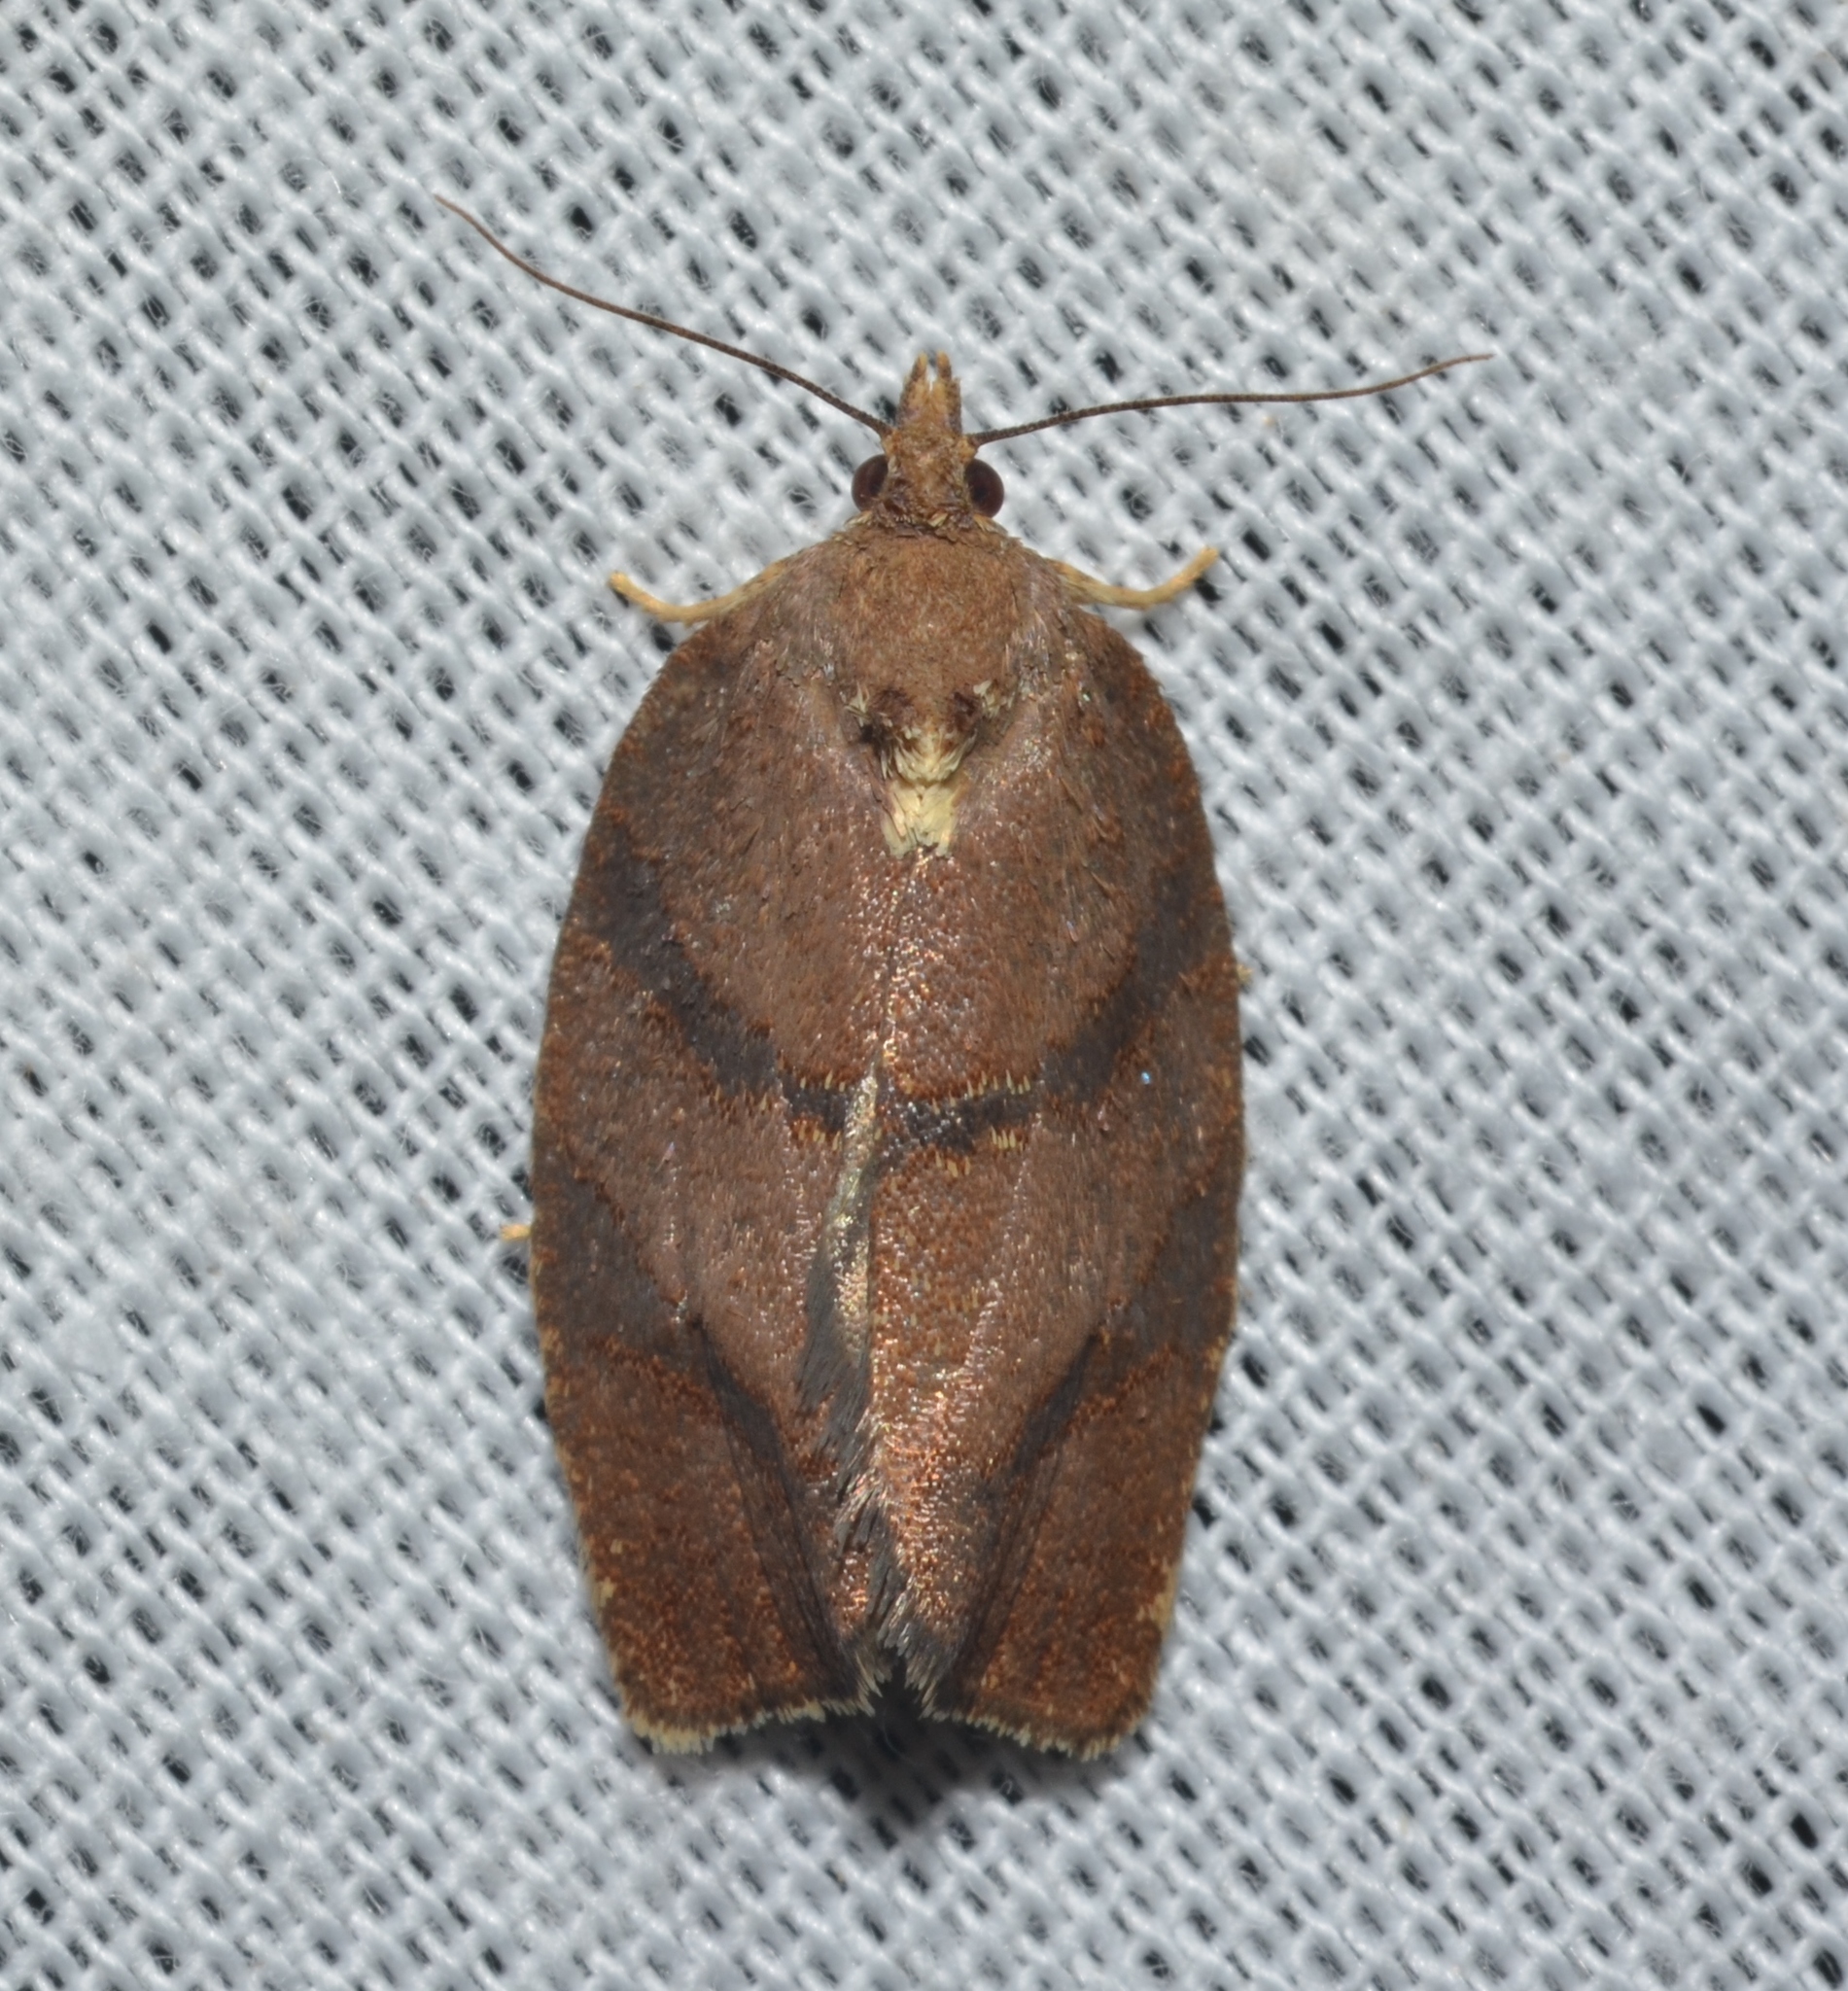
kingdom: Animalia
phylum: Arthropoda
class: Insecta
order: Lepidoptera
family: Tortricidae
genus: Argyrotaenia
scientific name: Argyrotaenia juglandana
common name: Hickory leafroller moth
